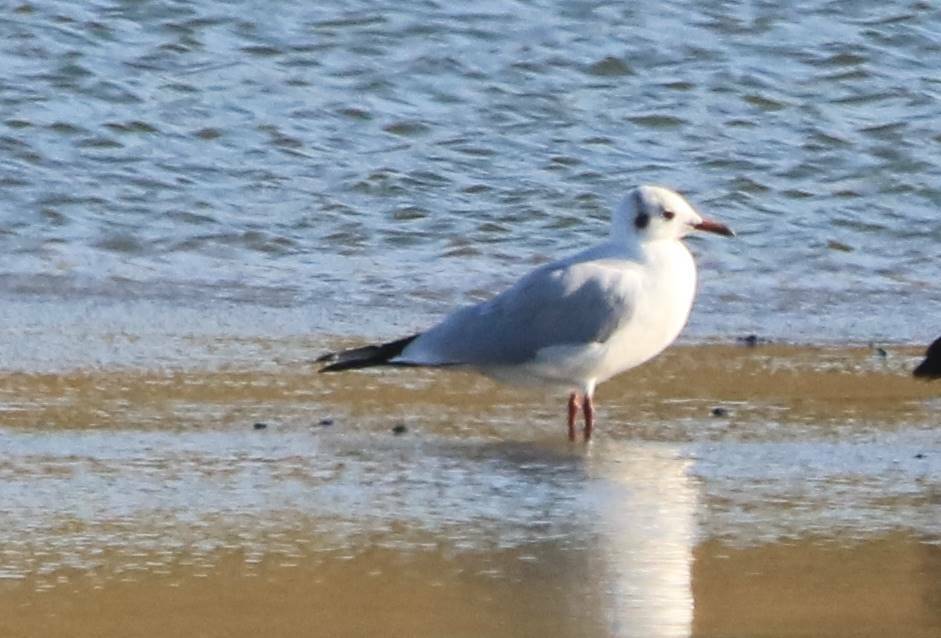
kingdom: Animalia
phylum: Chordata
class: Aves
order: Charadriiformes
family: Laridae
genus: Chroicocephalus
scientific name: Chroicocephalus ridibundus
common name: Black-headed gull
